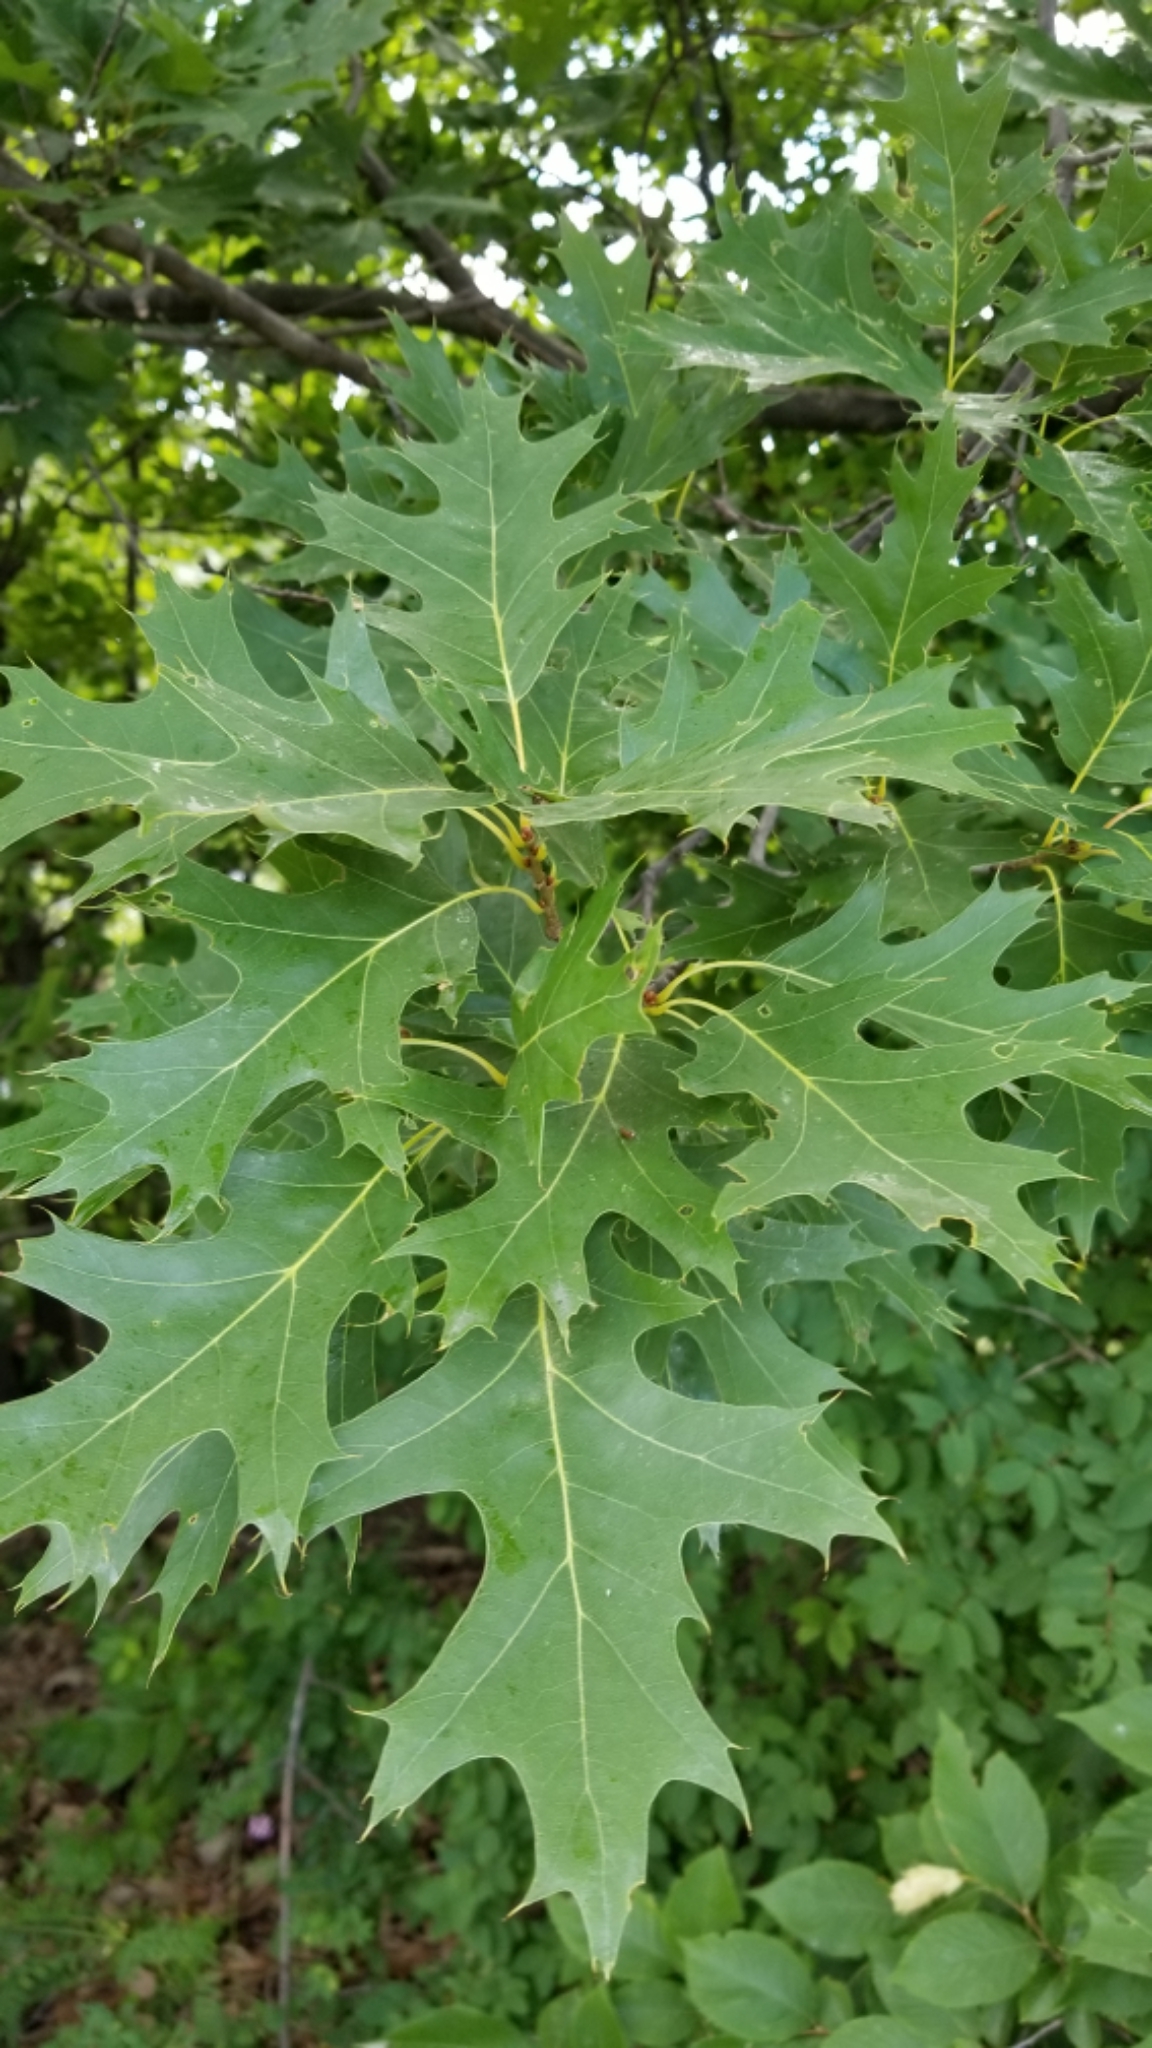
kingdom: Plantae
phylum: Tracheophyta
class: Magnoliopsida
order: Fagales
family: Fagaceae
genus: Quercus
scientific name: Quercus rubra
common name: Red oak
